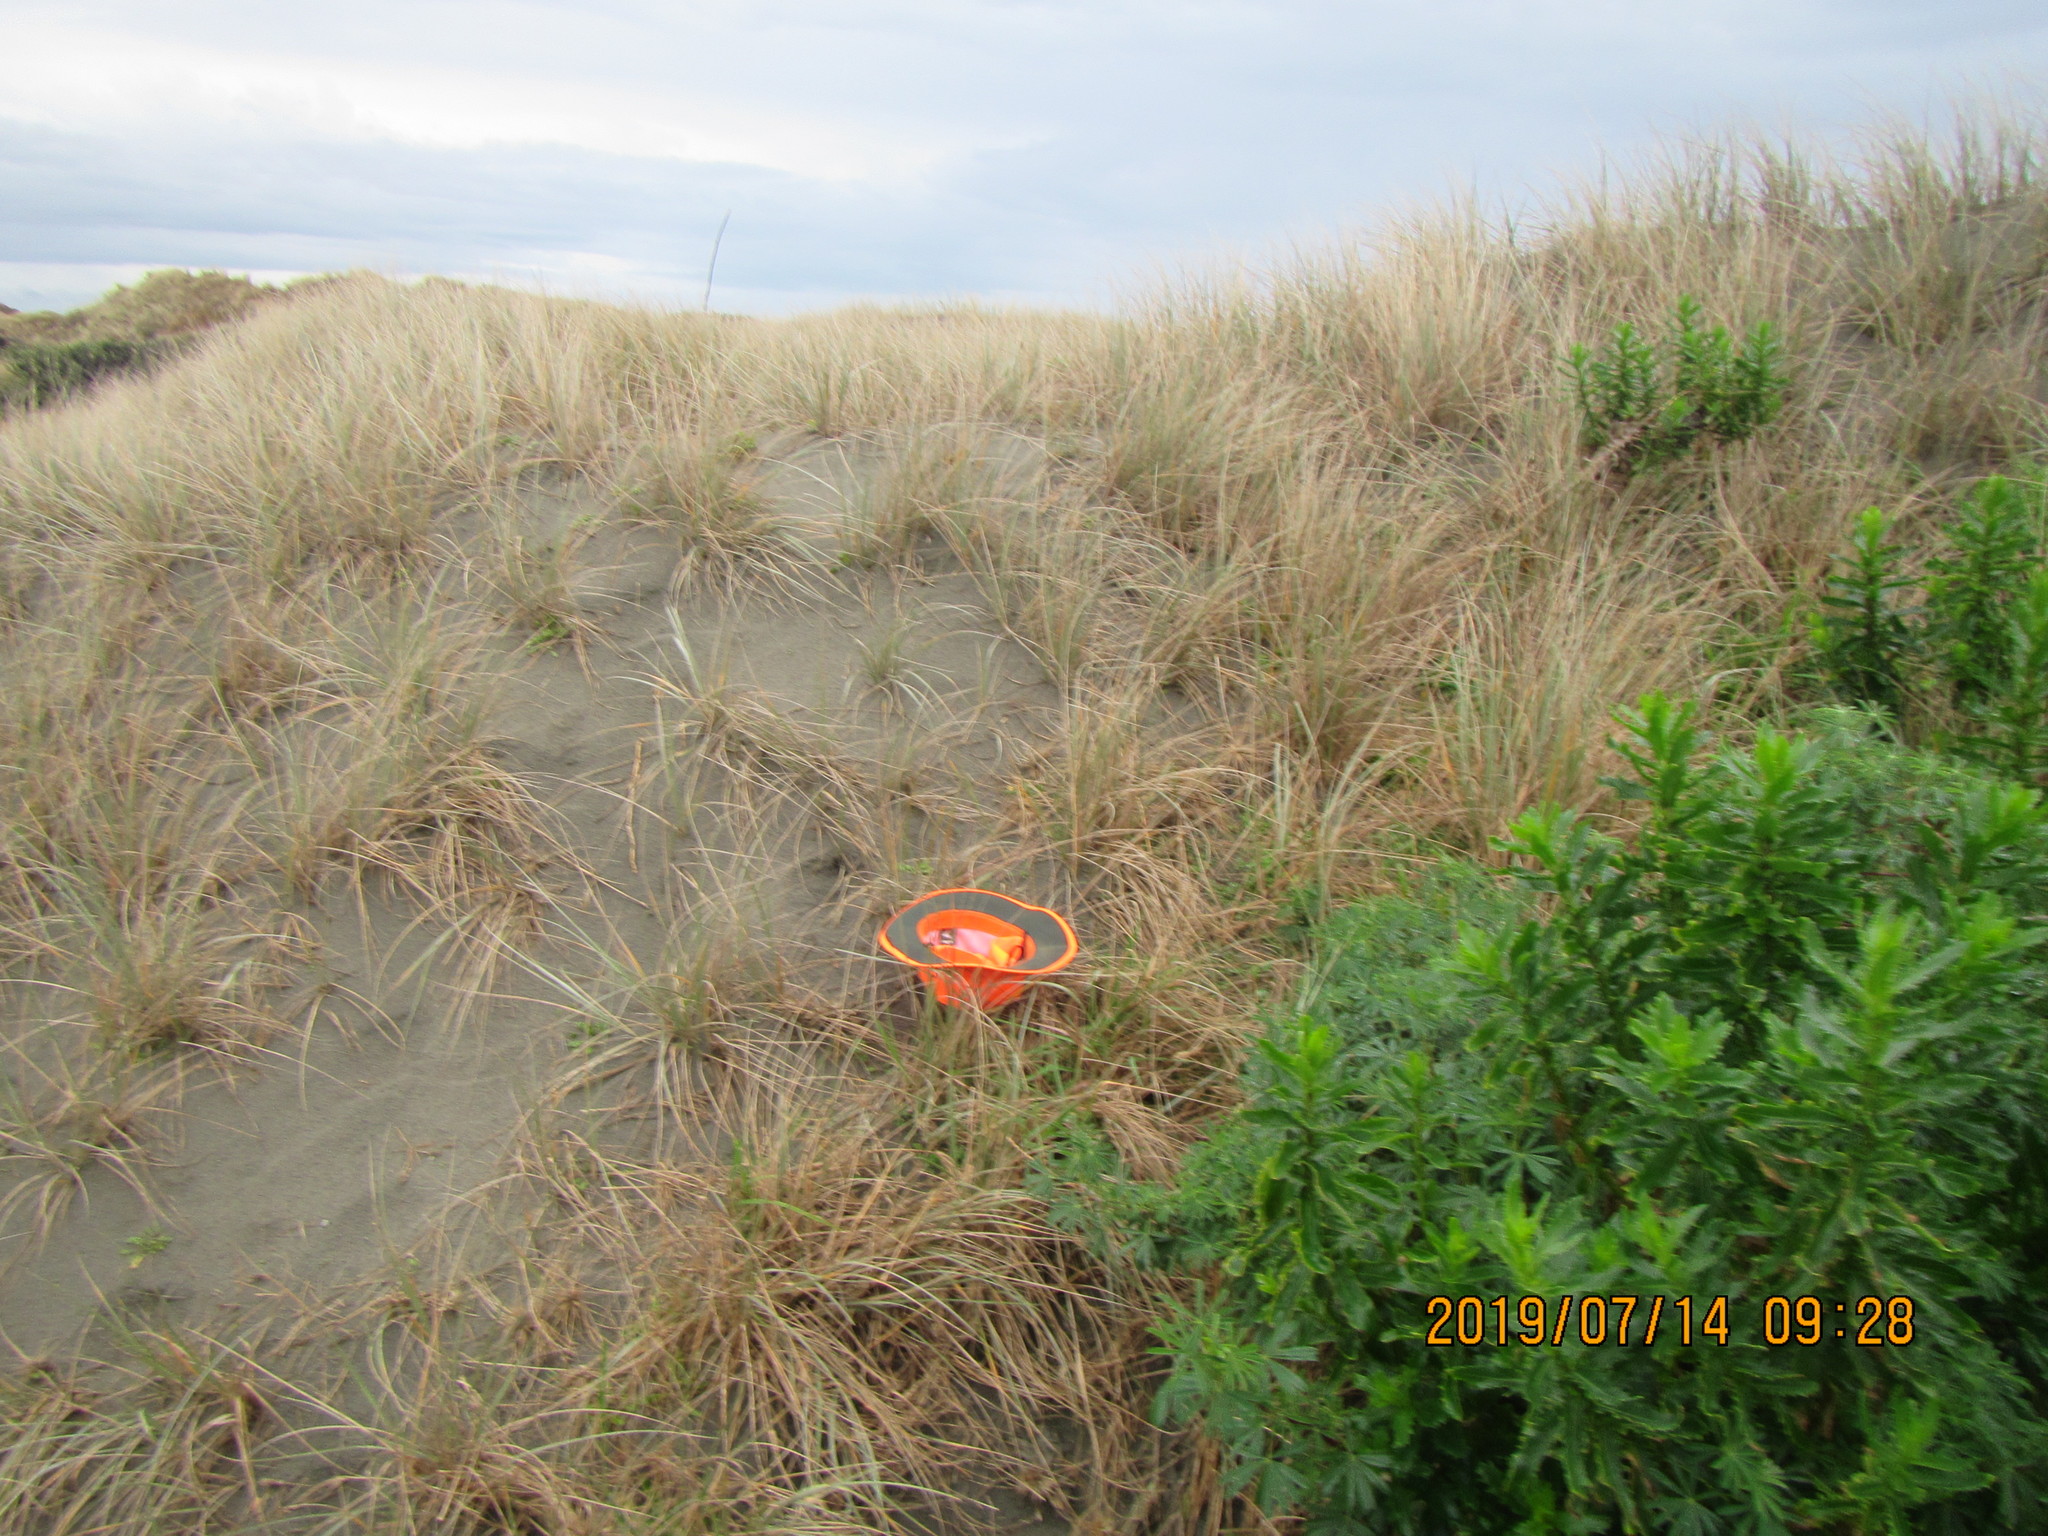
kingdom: Animalia
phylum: Arthropoda
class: Arachnida
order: Araneae
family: Theridiidae
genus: Latrodectus
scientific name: Latrodectus katipo
